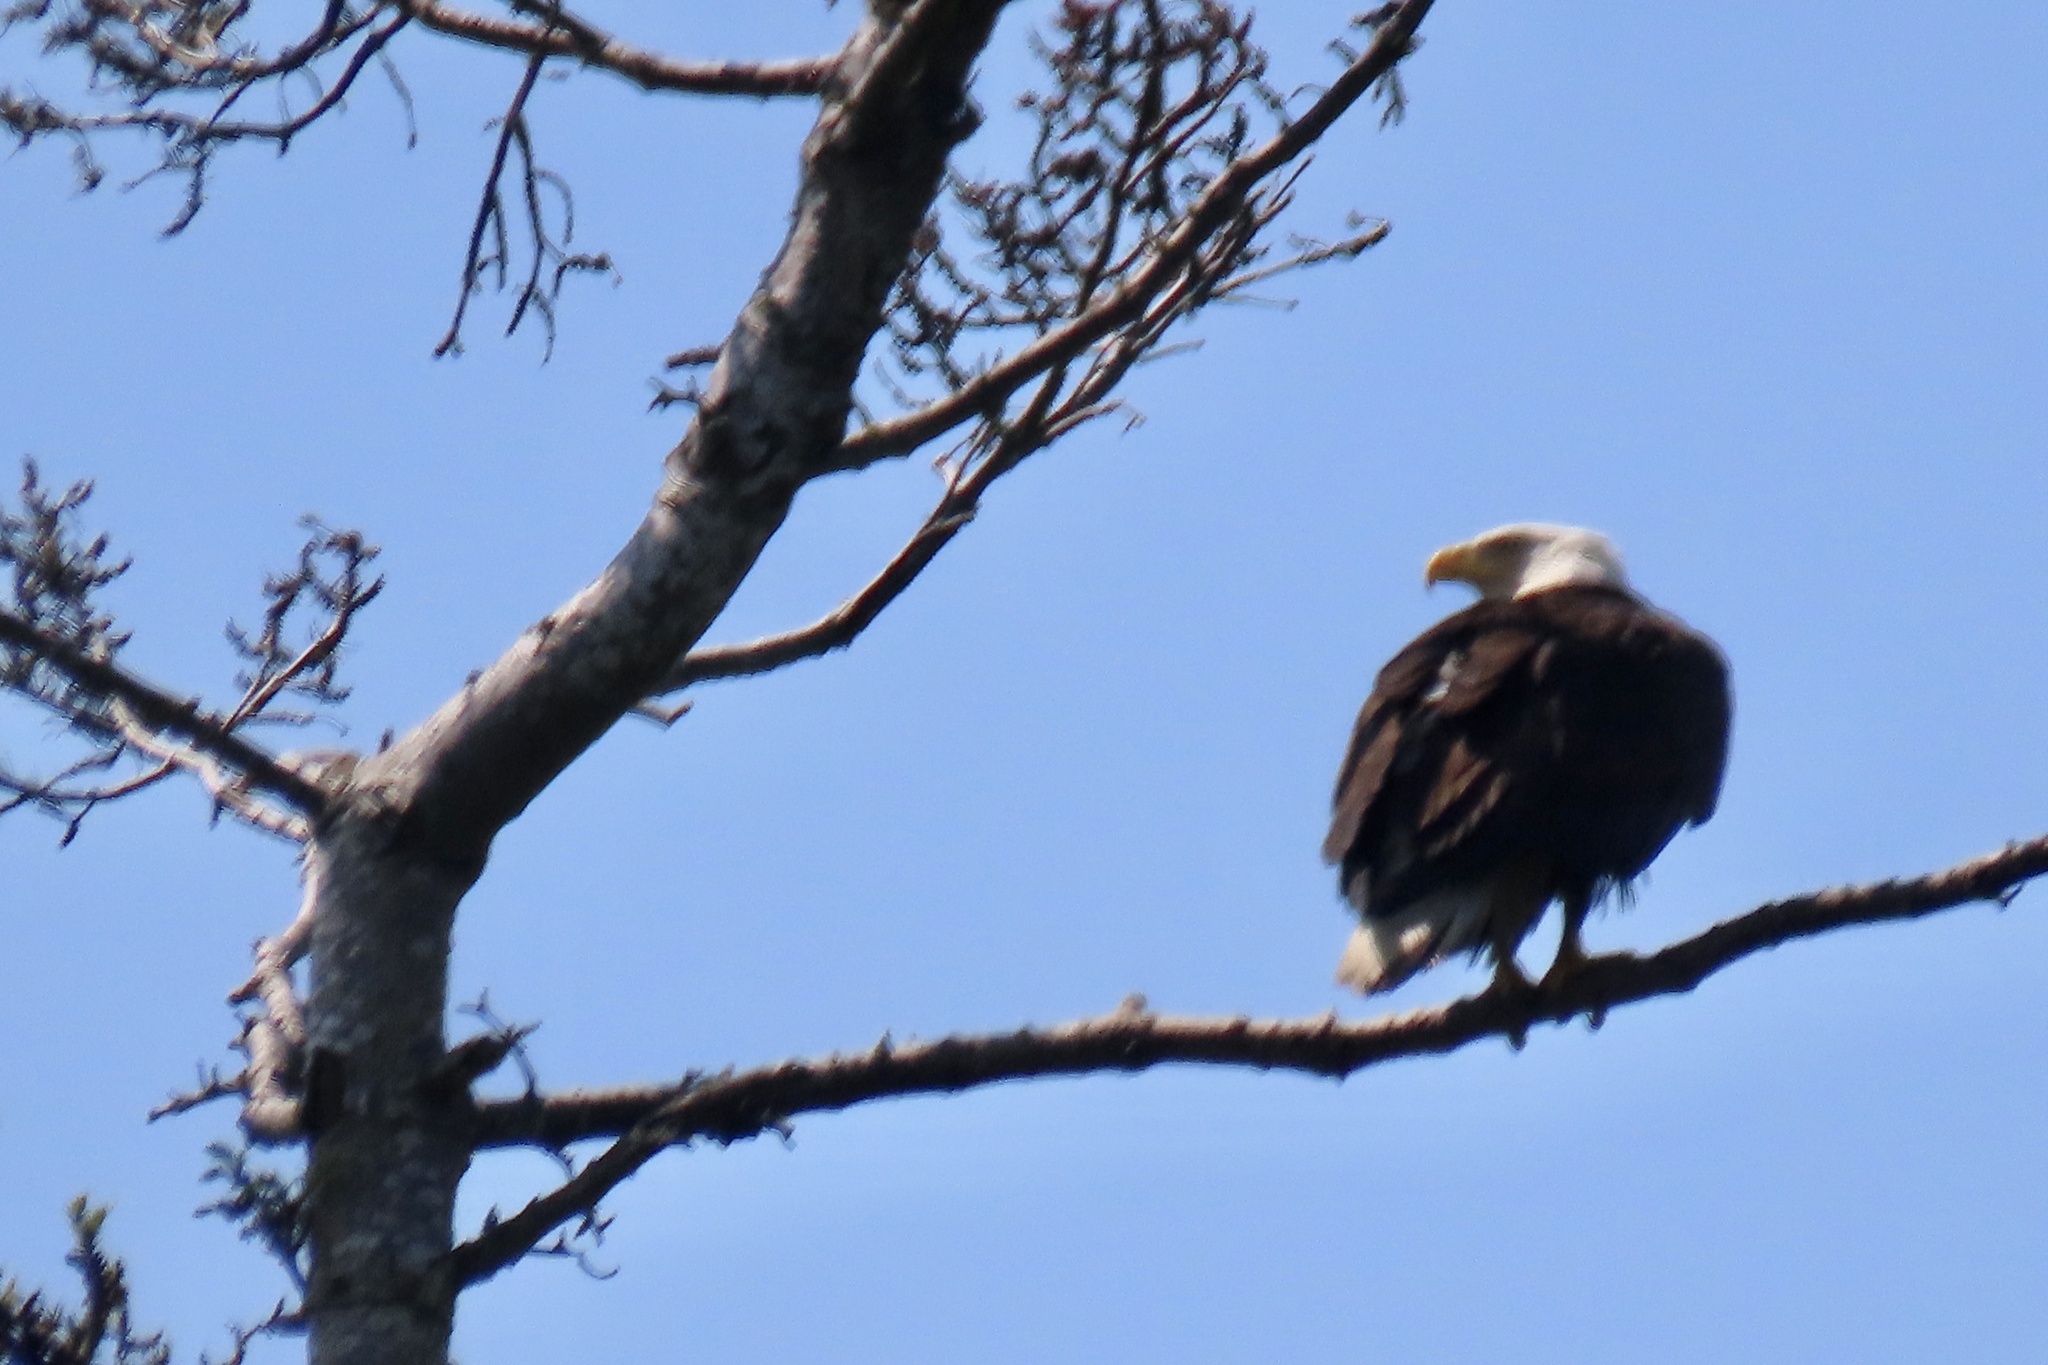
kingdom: Animalia
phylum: Chordata
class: Aves
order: Accipitriformes
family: Accipitridae
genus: Haliaeetus
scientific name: Haliaeetus leucocephalus
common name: Bald eagle
